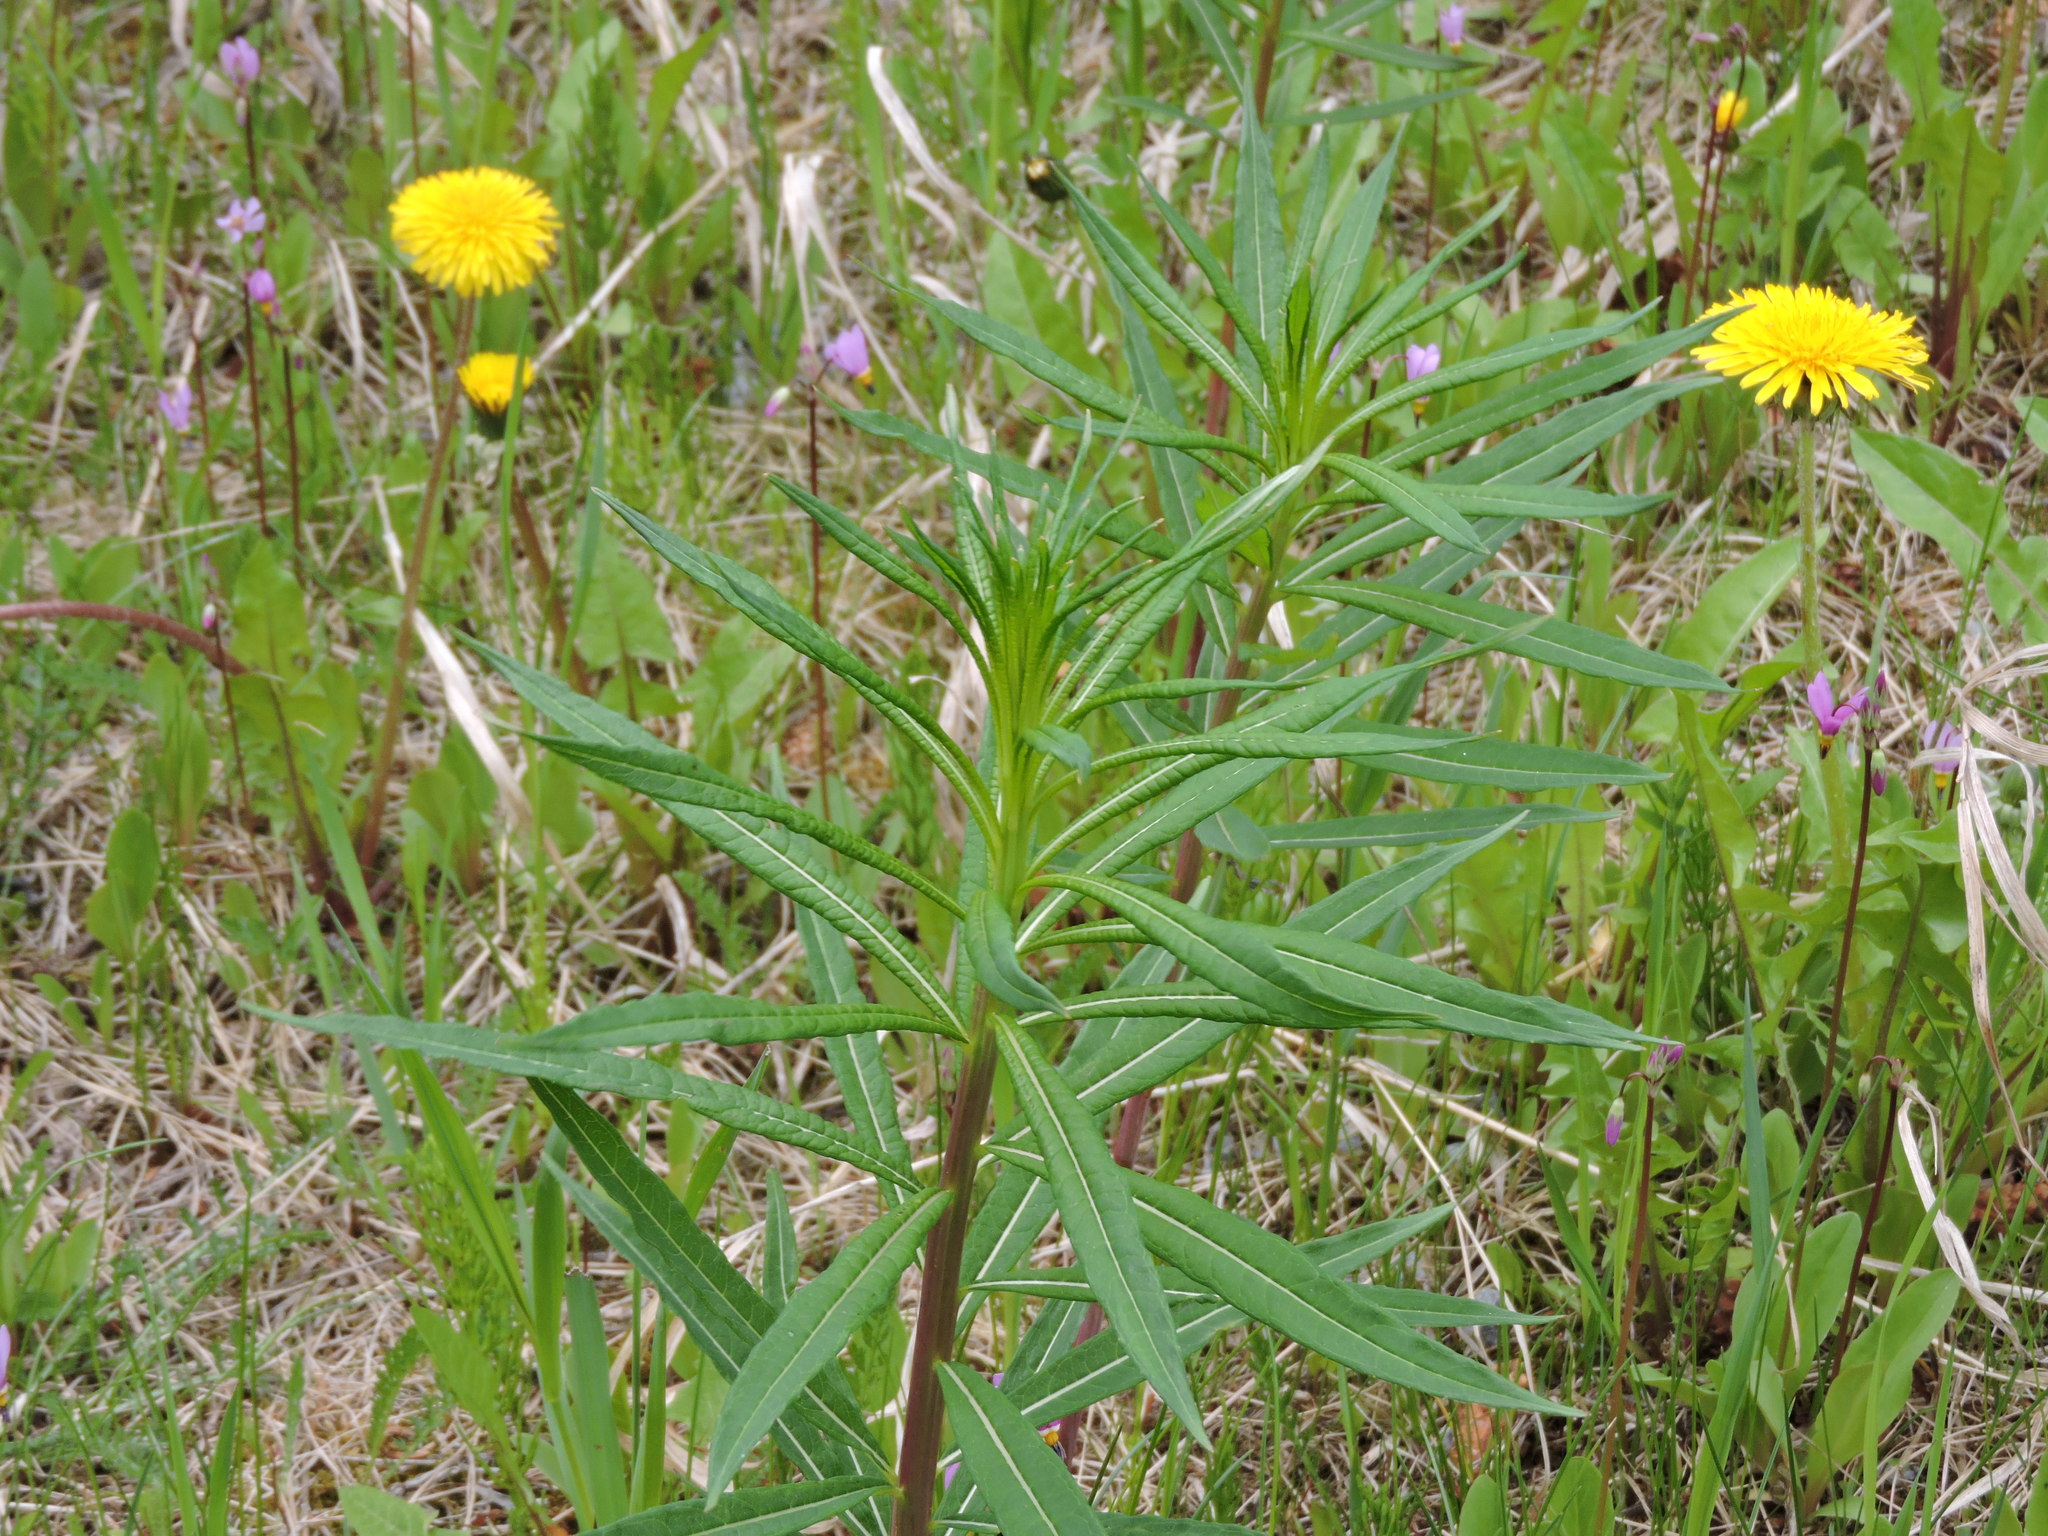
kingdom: Plantae
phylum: Tracheophyta
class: Magnoliopsida
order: Myrtales
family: Onagraceae
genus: Chamaenerion
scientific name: Chamaenerion angustifolium
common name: Fireweed
